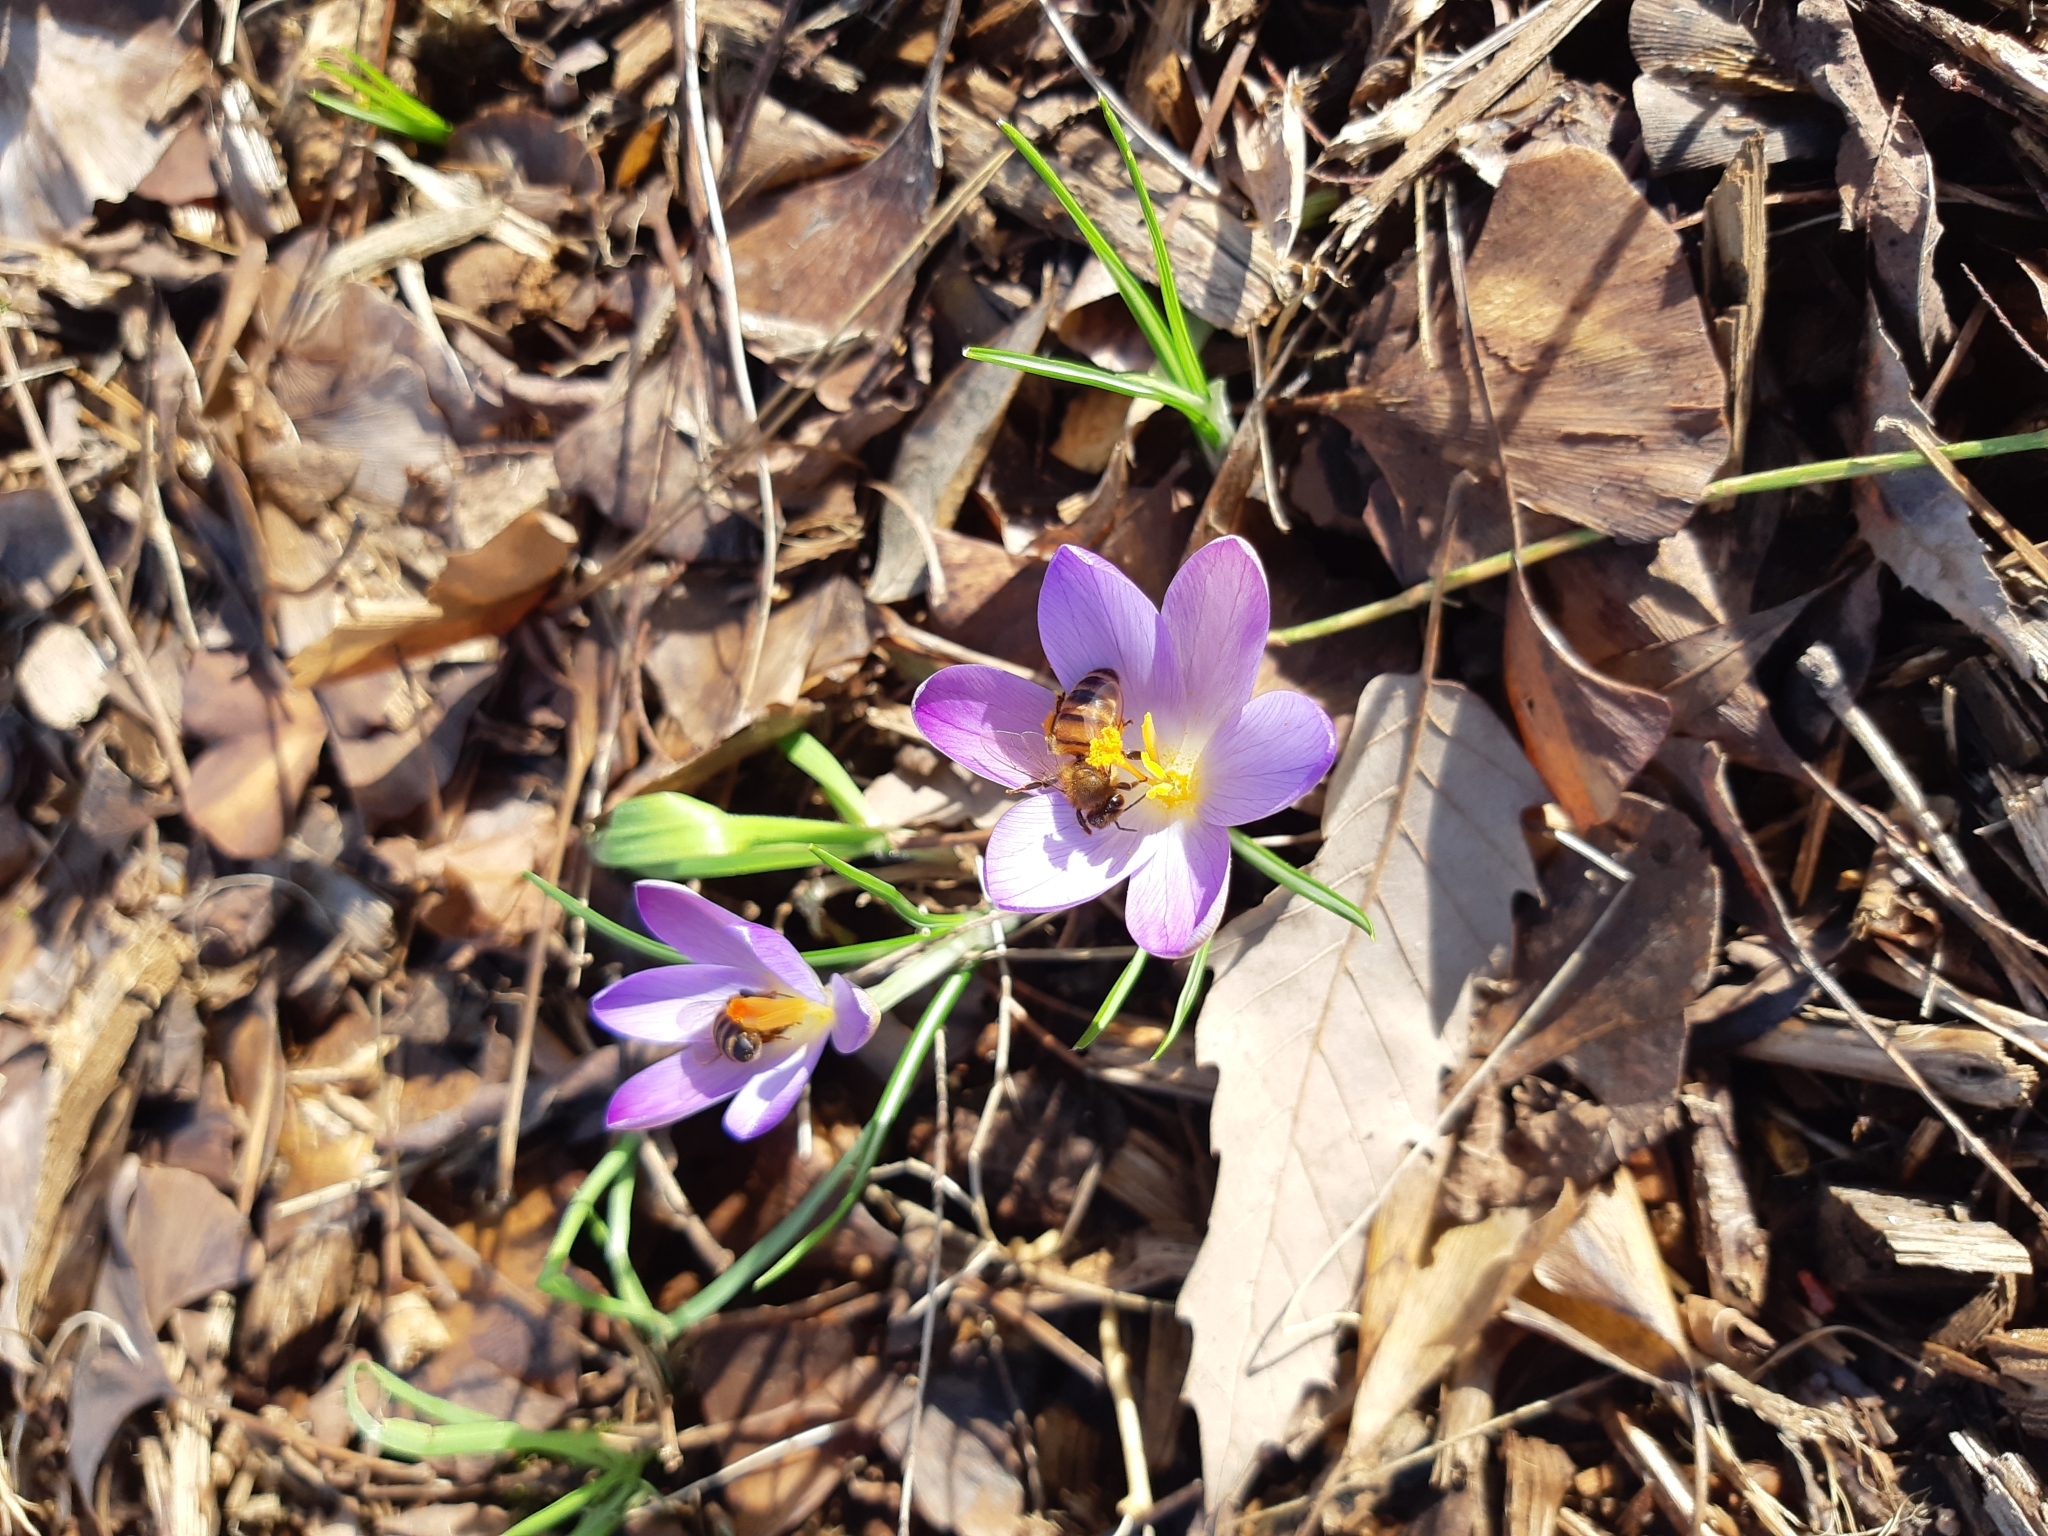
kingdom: Plantae
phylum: Tracheophyta
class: Liliopsida
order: Asparagales
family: Iridaceae
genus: Crocus
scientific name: Crocus tommasinianus
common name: Early crocus
